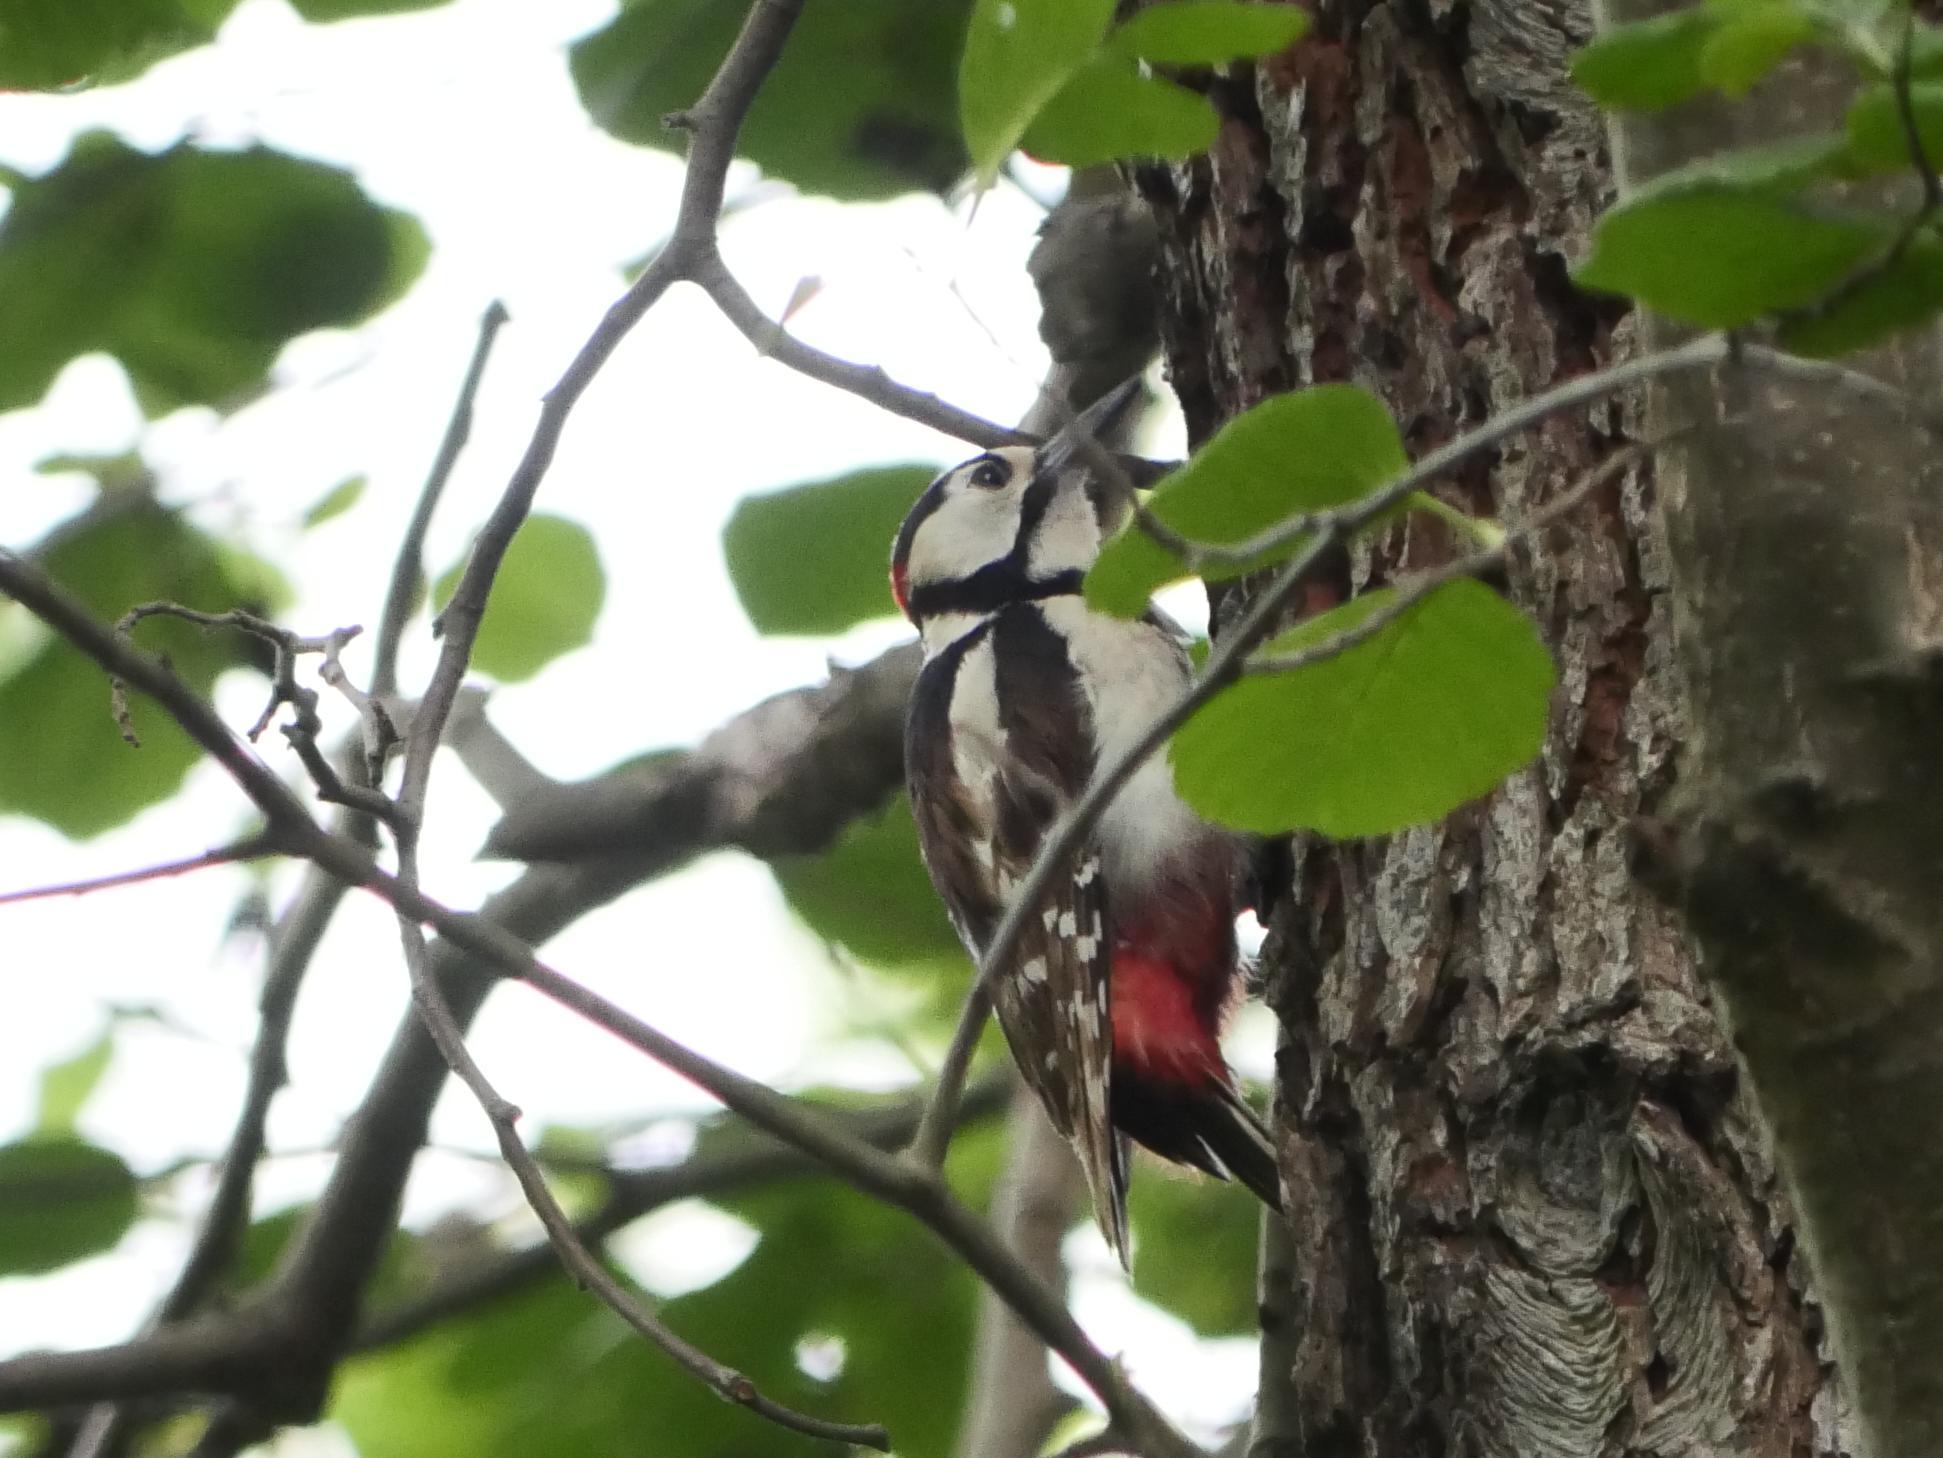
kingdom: Animalia
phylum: Chordata
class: Aves
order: Piciformes
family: Picidae
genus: Dendrocopos
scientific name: Dendrocopos major
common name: Great spotted woodpecker
